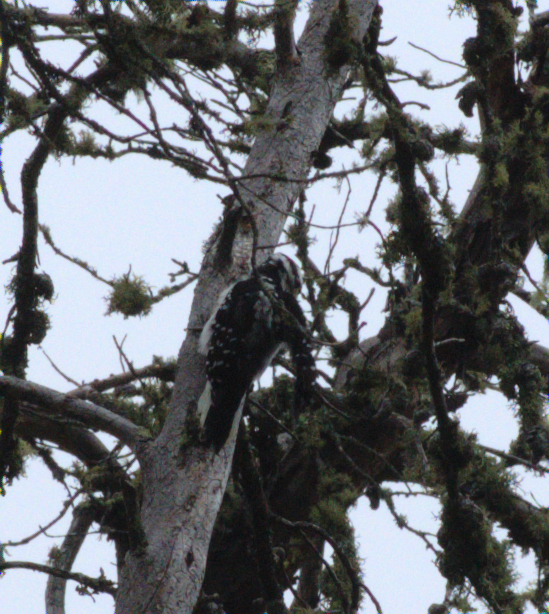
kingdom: Animalia
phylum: Chordata
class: Aves
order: Piciformes
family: Picidae
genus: Leuconotopicus
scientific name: Leuconotopicus villosus
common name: Hairy woodpecker
